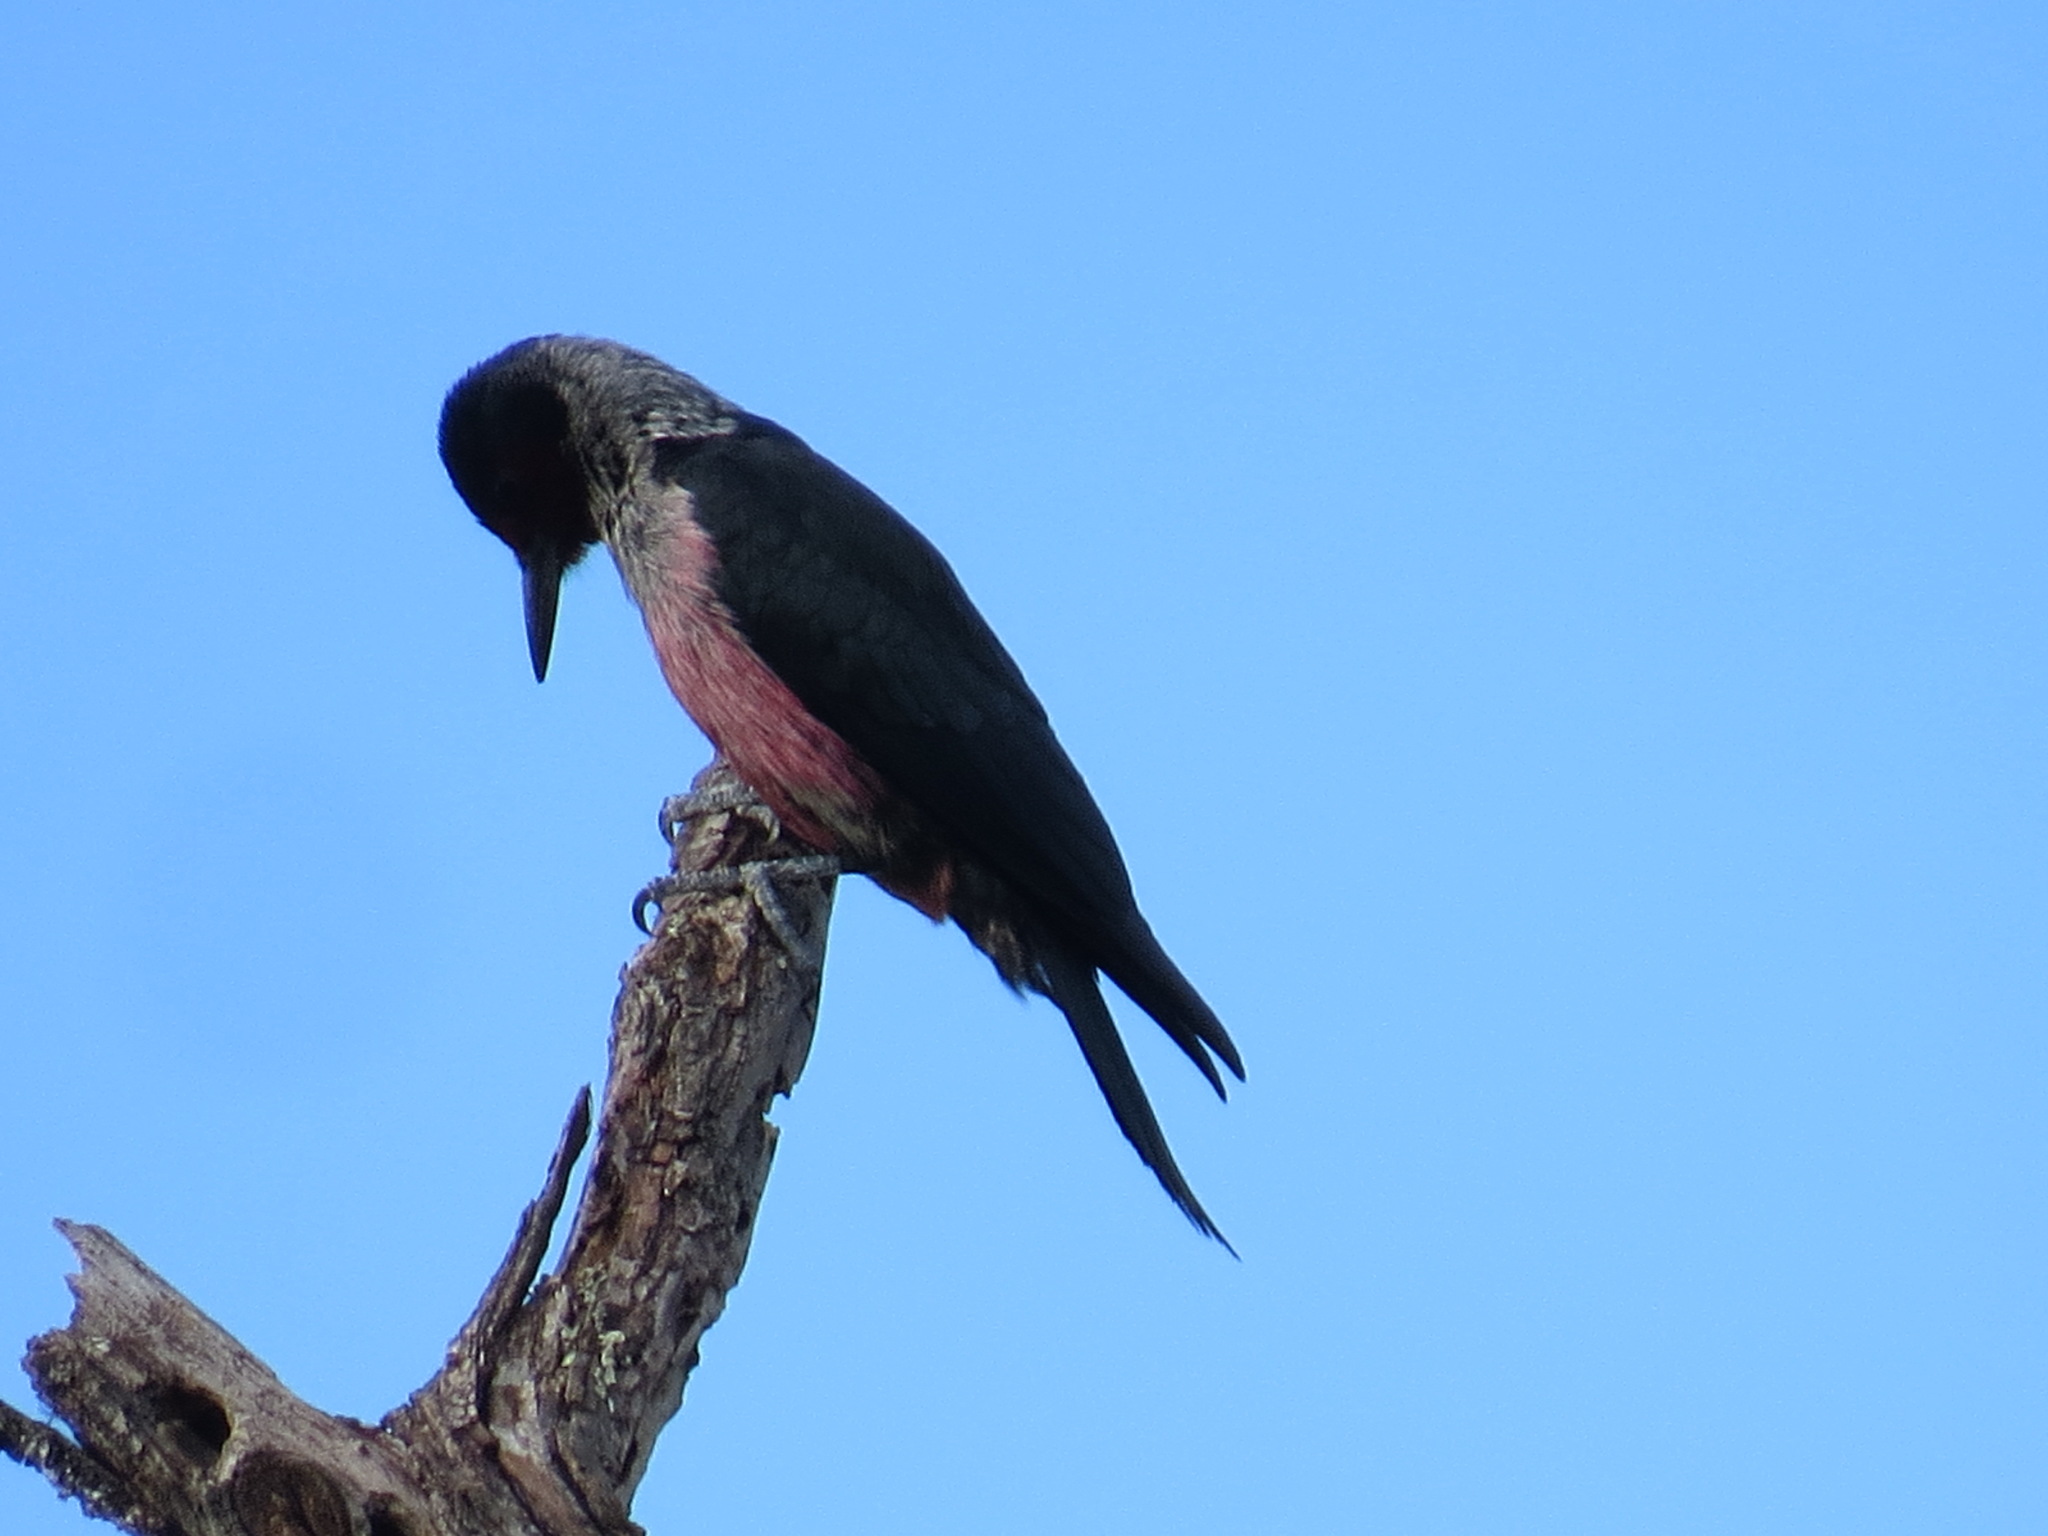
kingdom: Animalia
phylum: Chordata
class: Aves
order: Piciformes
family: Picidae
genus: Melanerpes
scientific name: Melanerpes lewis
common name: Lewis's woodpecker
